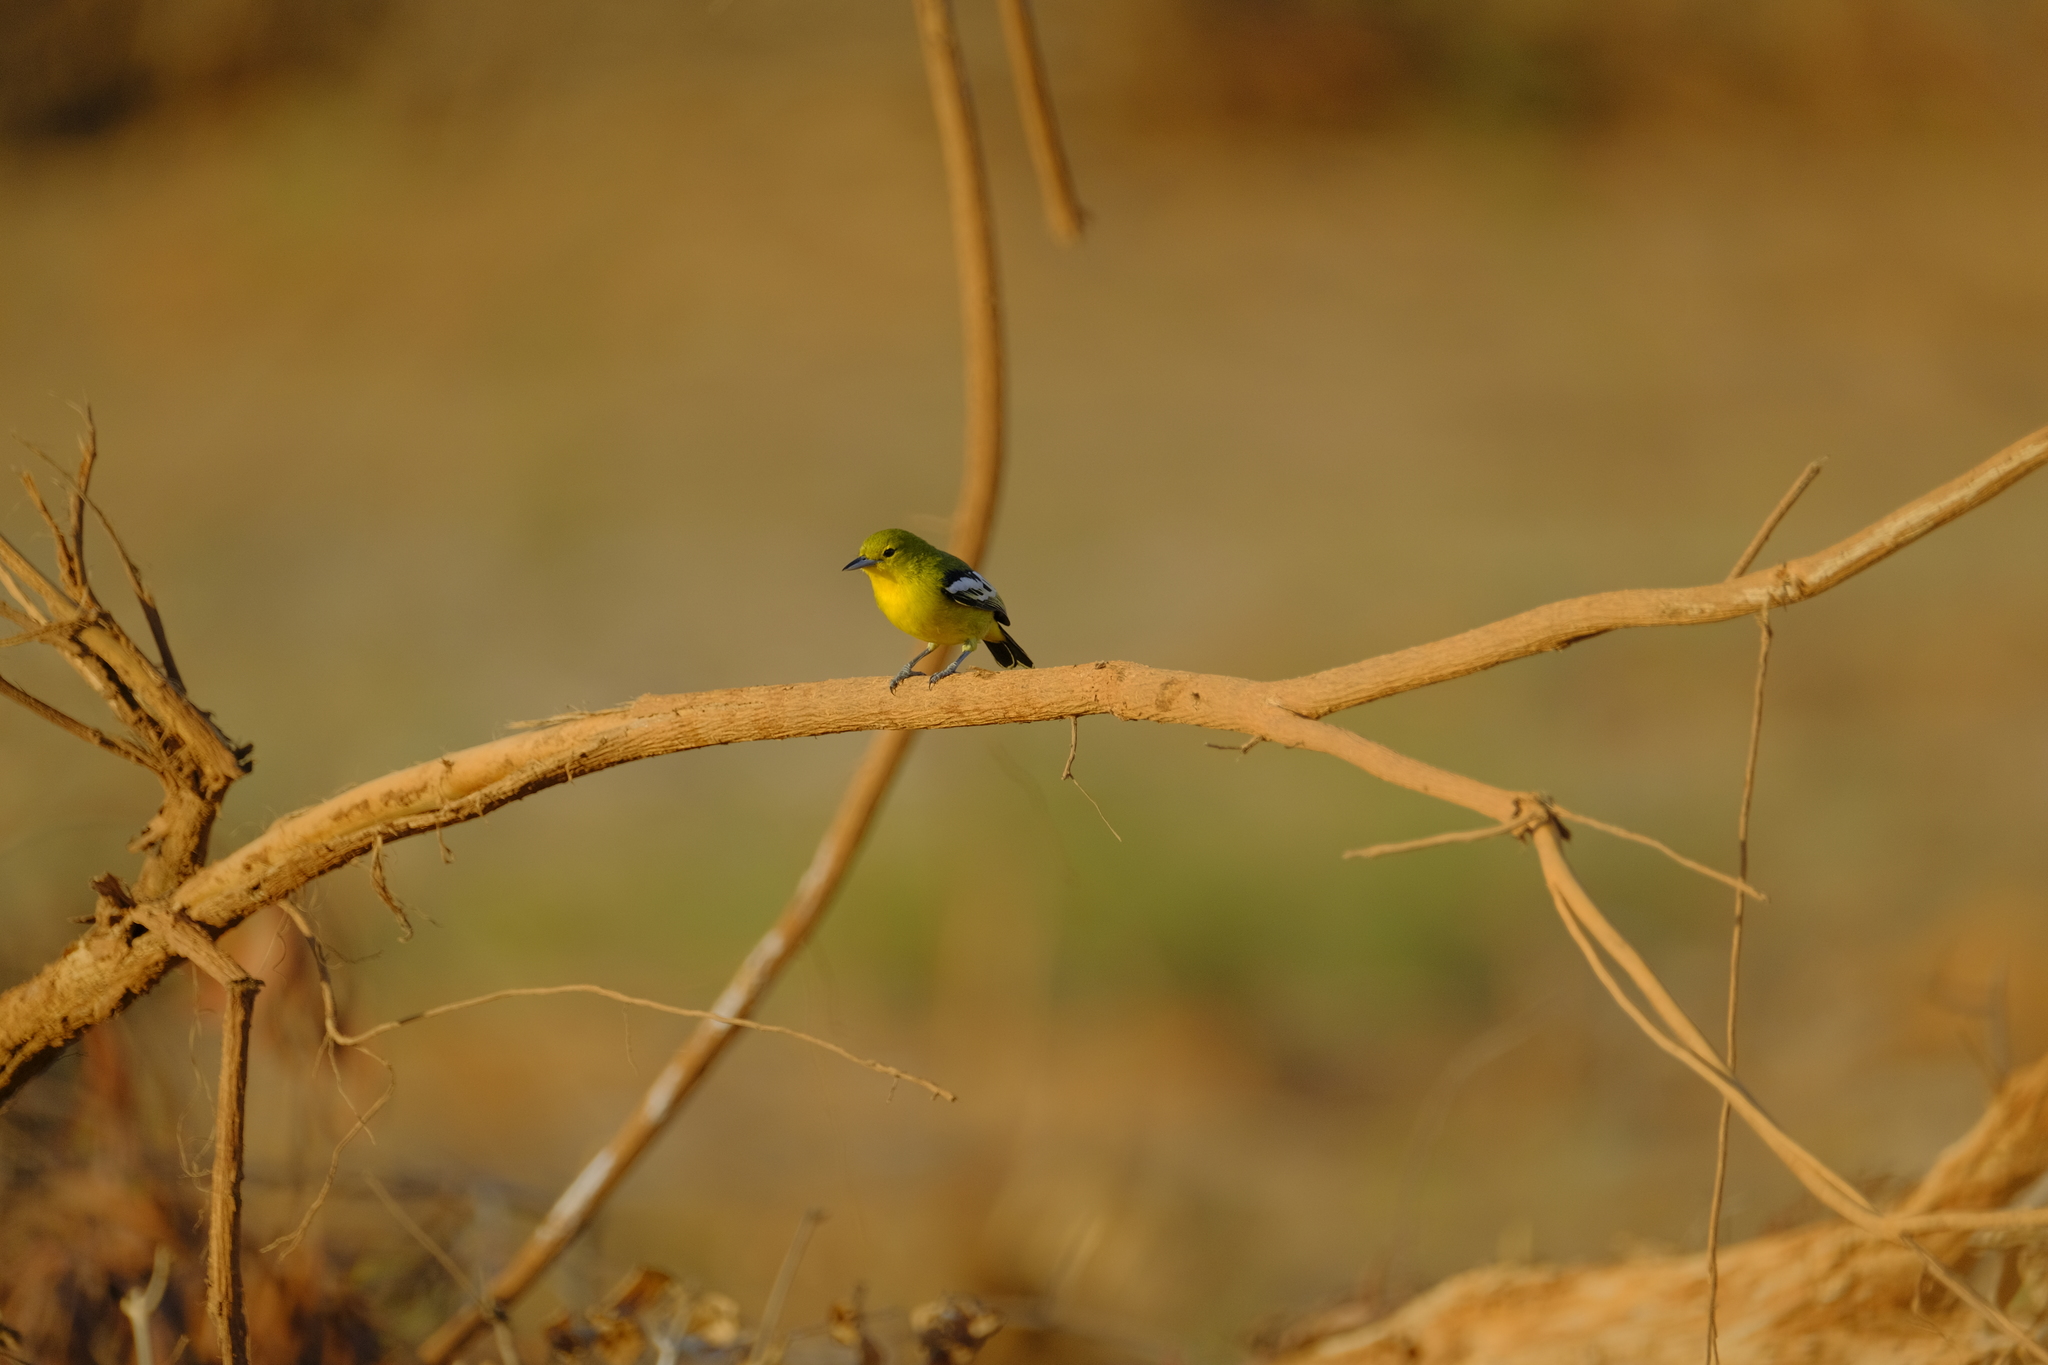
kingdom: Animalia
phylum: Chordata
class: Aves
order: Passeriformes
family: Aegithinidae
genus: Aegithina
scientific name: Aegithina tiphia
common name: Common iora
